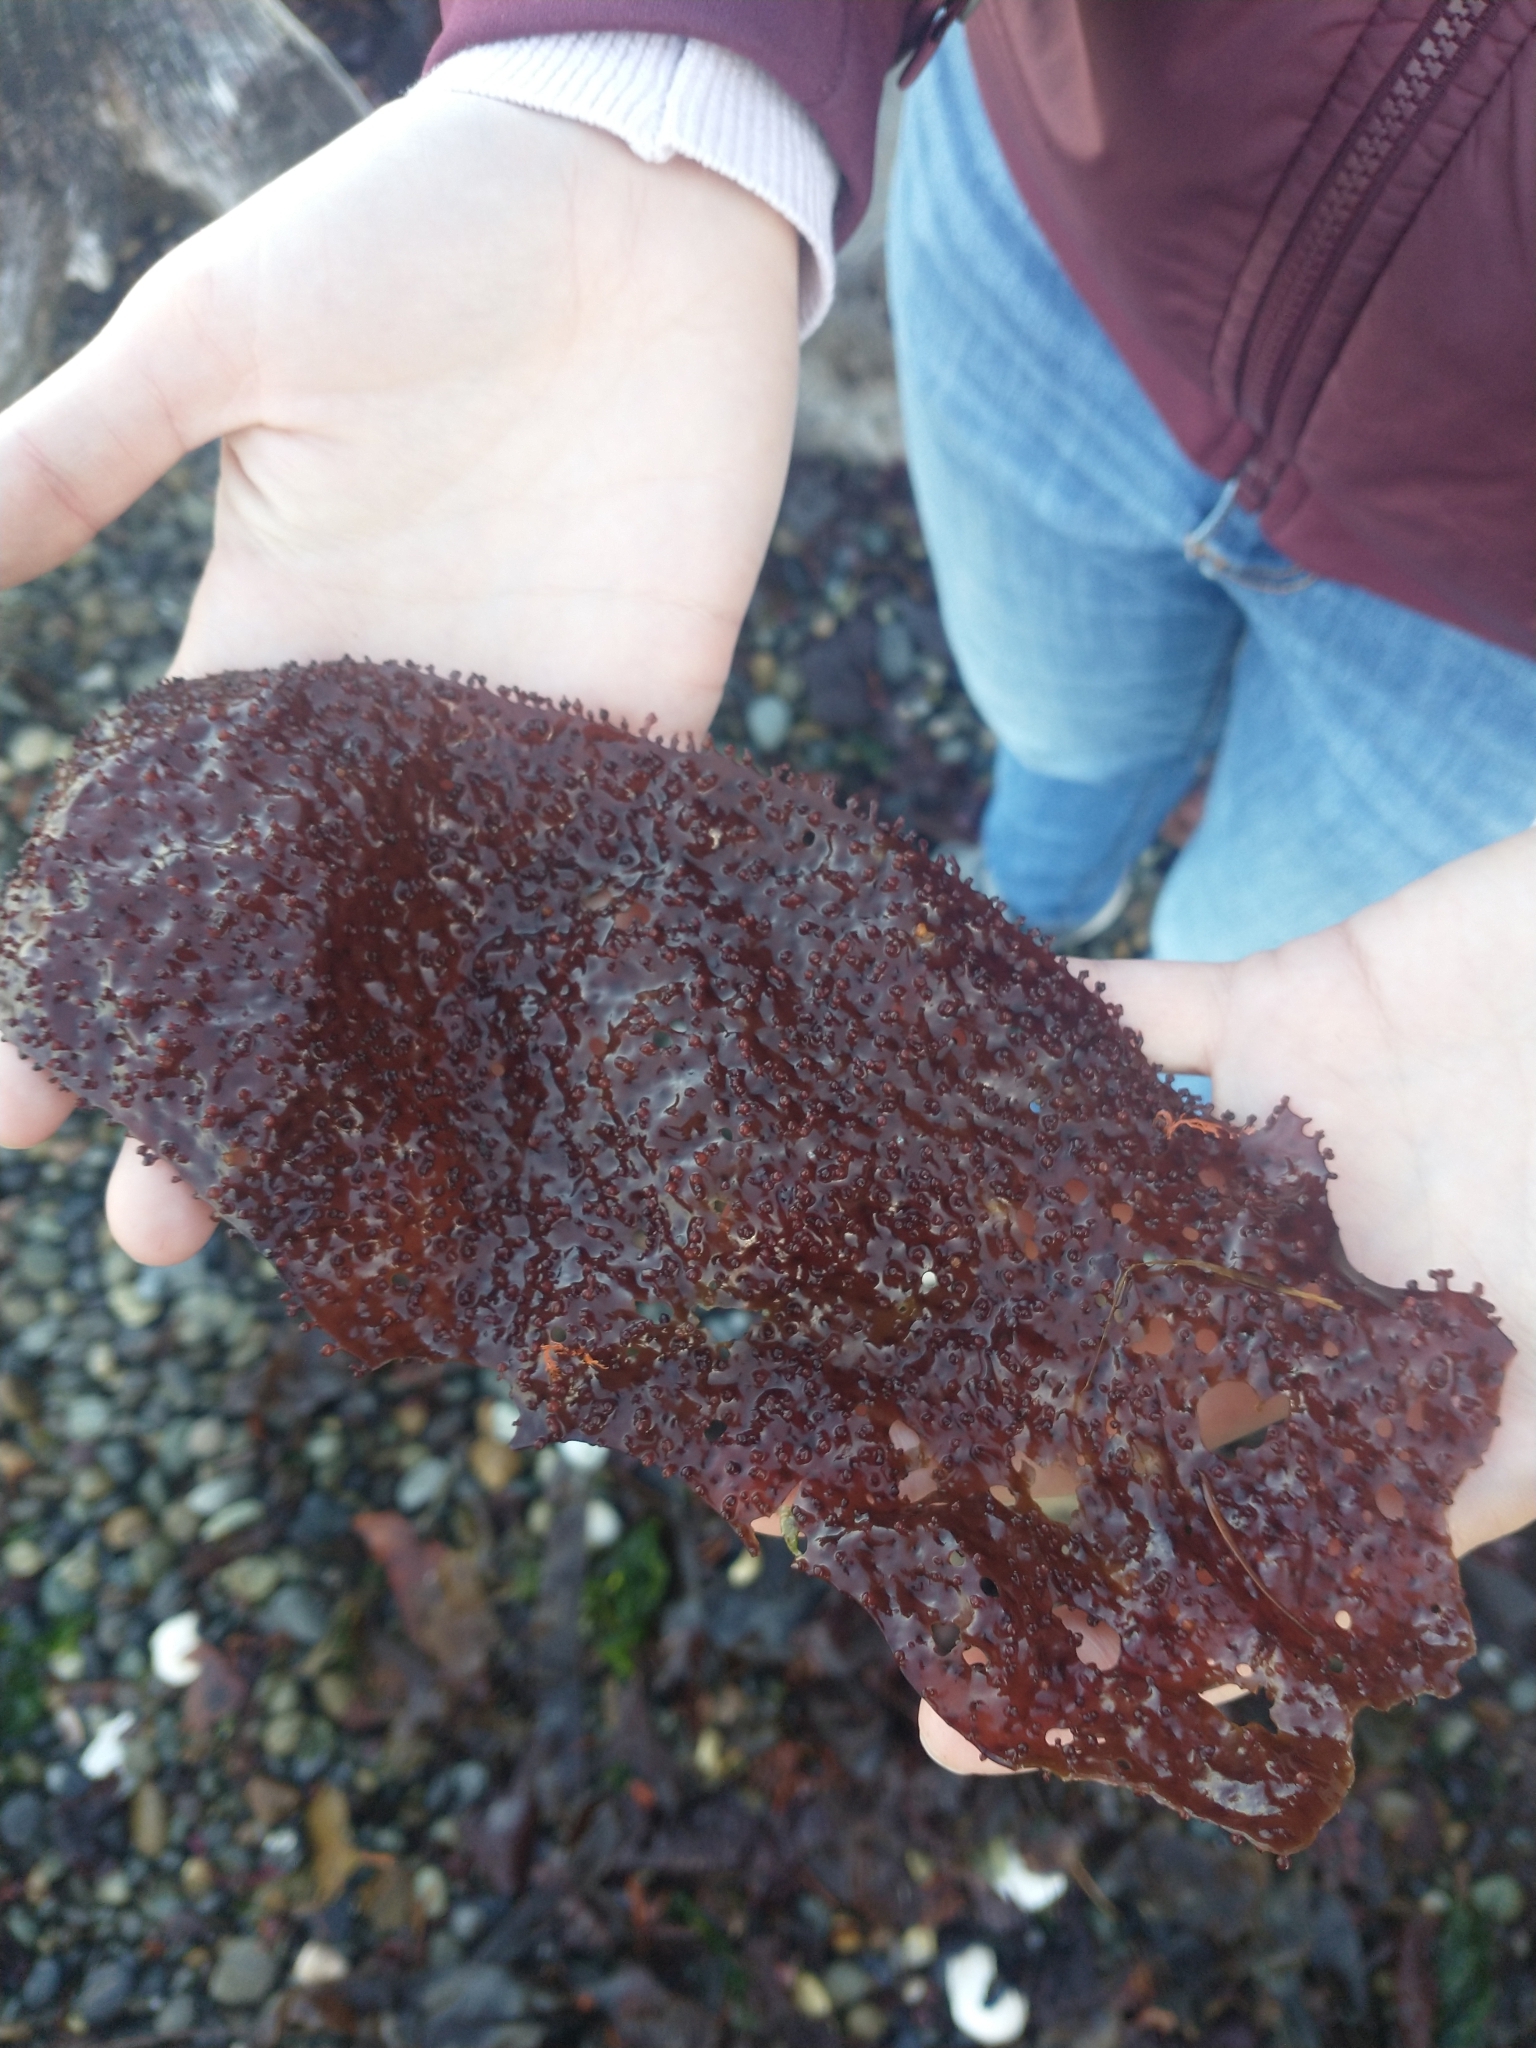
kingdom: Plantae
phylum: Rhodophyta
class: Florideophyceae
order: Gigartinales
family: Gigartinaceae
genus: Chondracanthus
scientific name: Chondracanthus exasperatus
